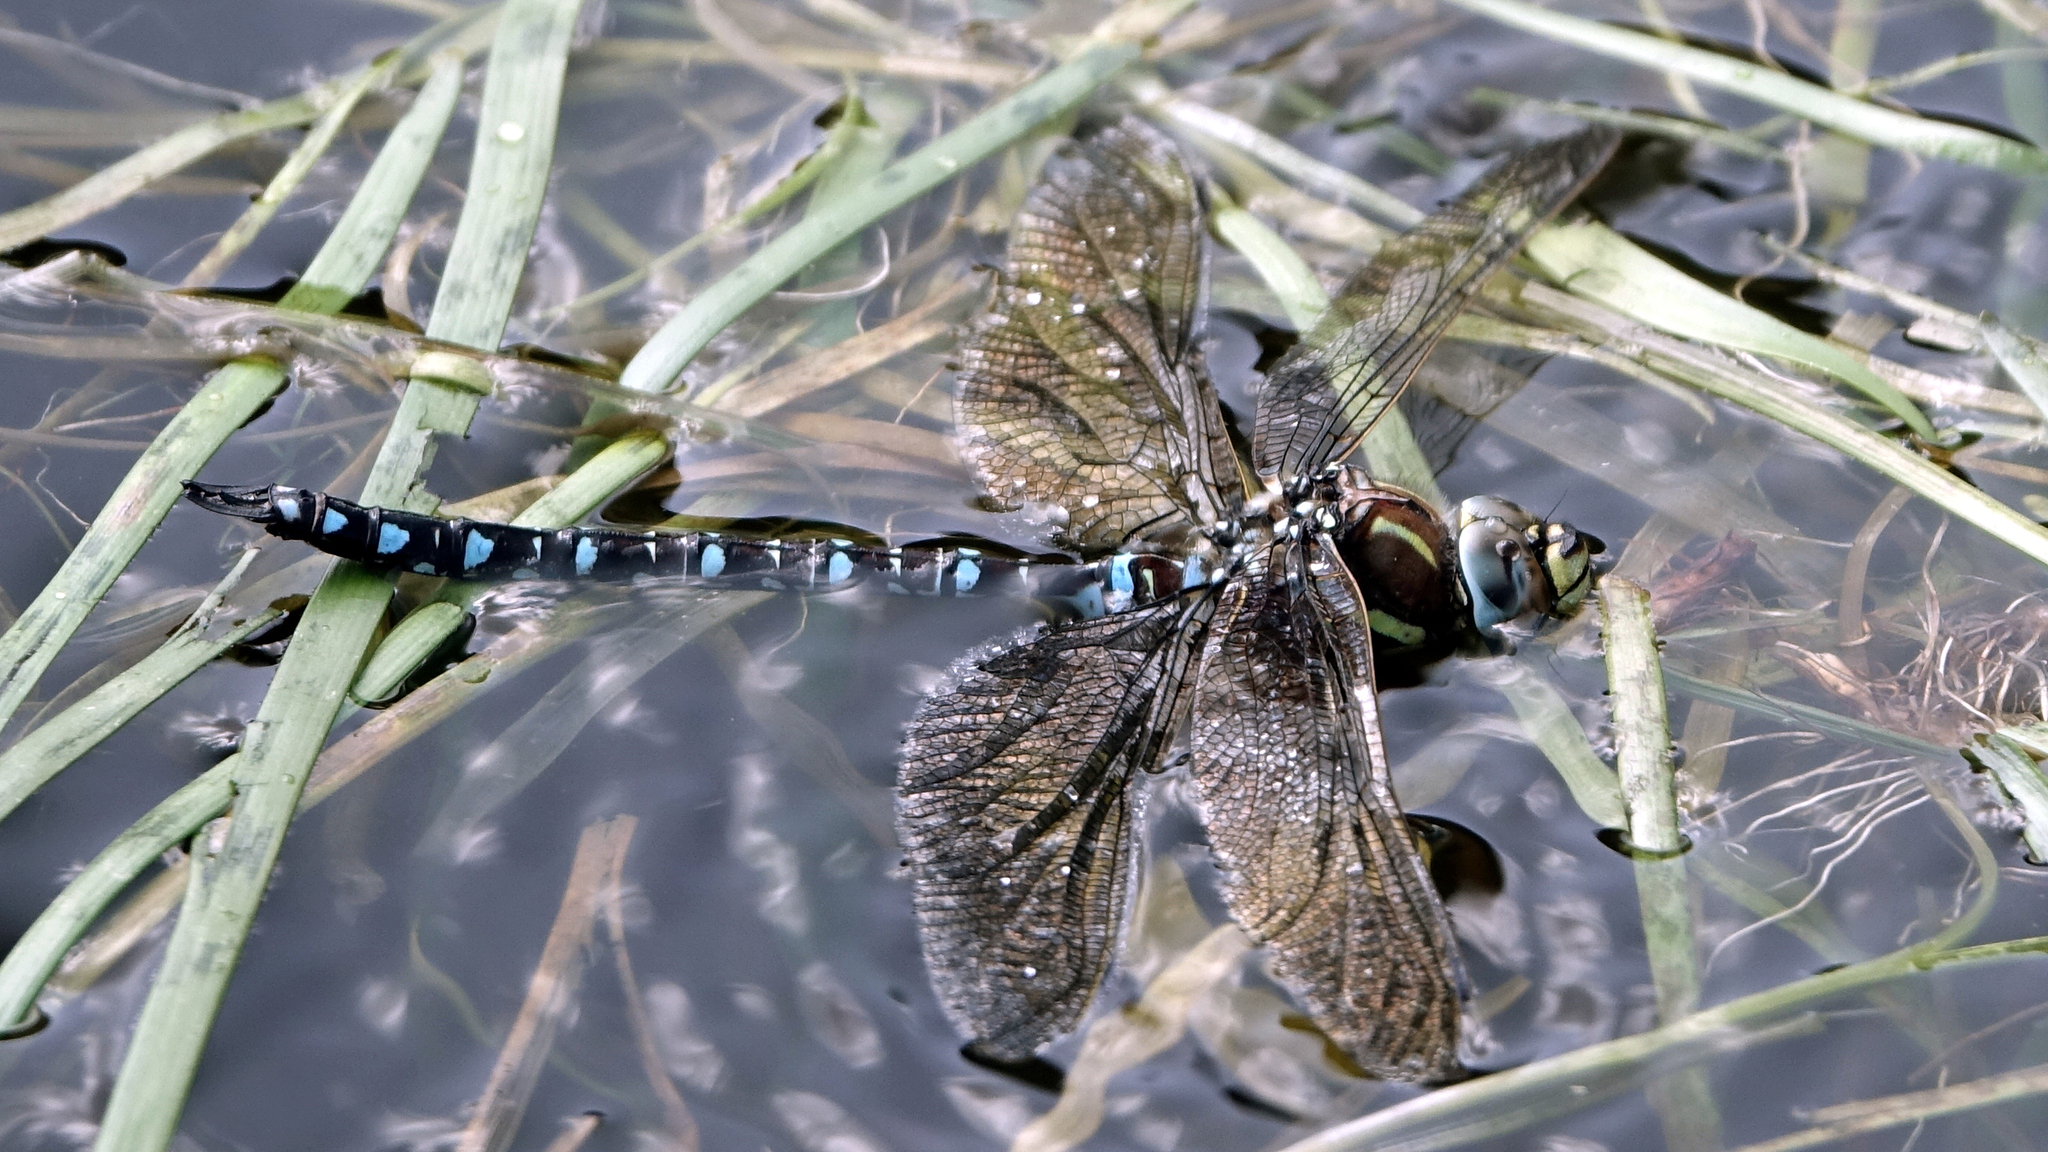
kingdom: Animalia
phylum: Arthropoda
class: Insecta
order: Odonata
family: Aeshnidae
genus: Aeshna
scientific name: Aeshna juncea
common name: Moorland hawker
